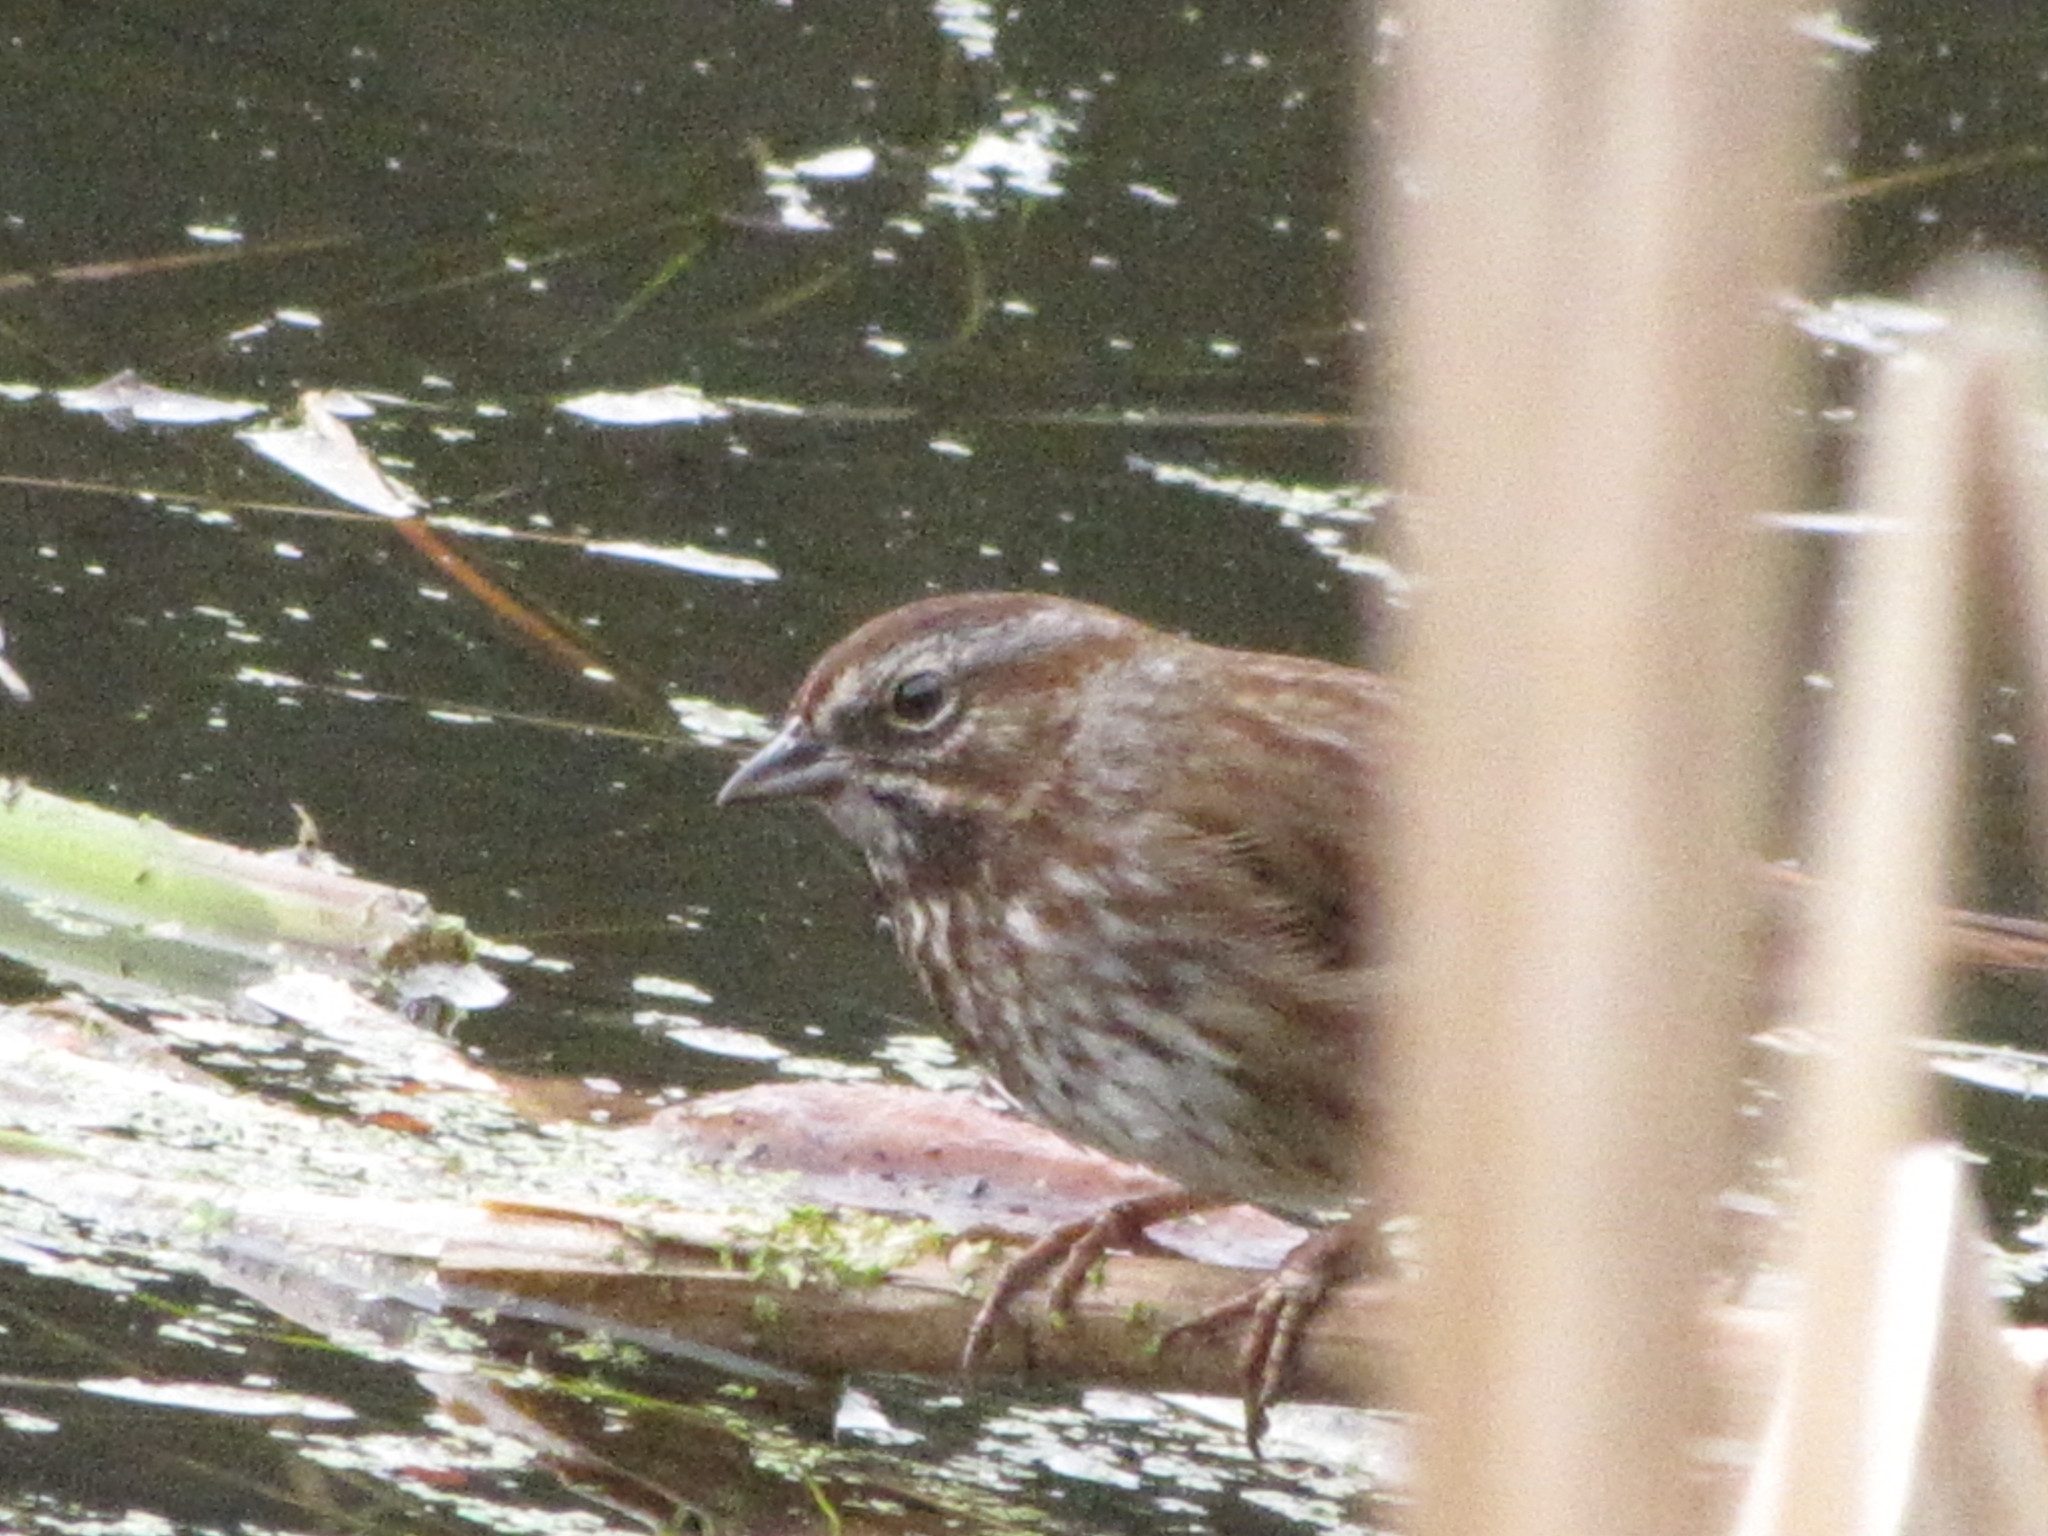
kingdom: Animalia
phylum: Chordata
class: Aves
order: Passeriformes
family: Passerellidae
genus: Melospiza
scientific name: Melospiza melodia
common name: Song sparrow
